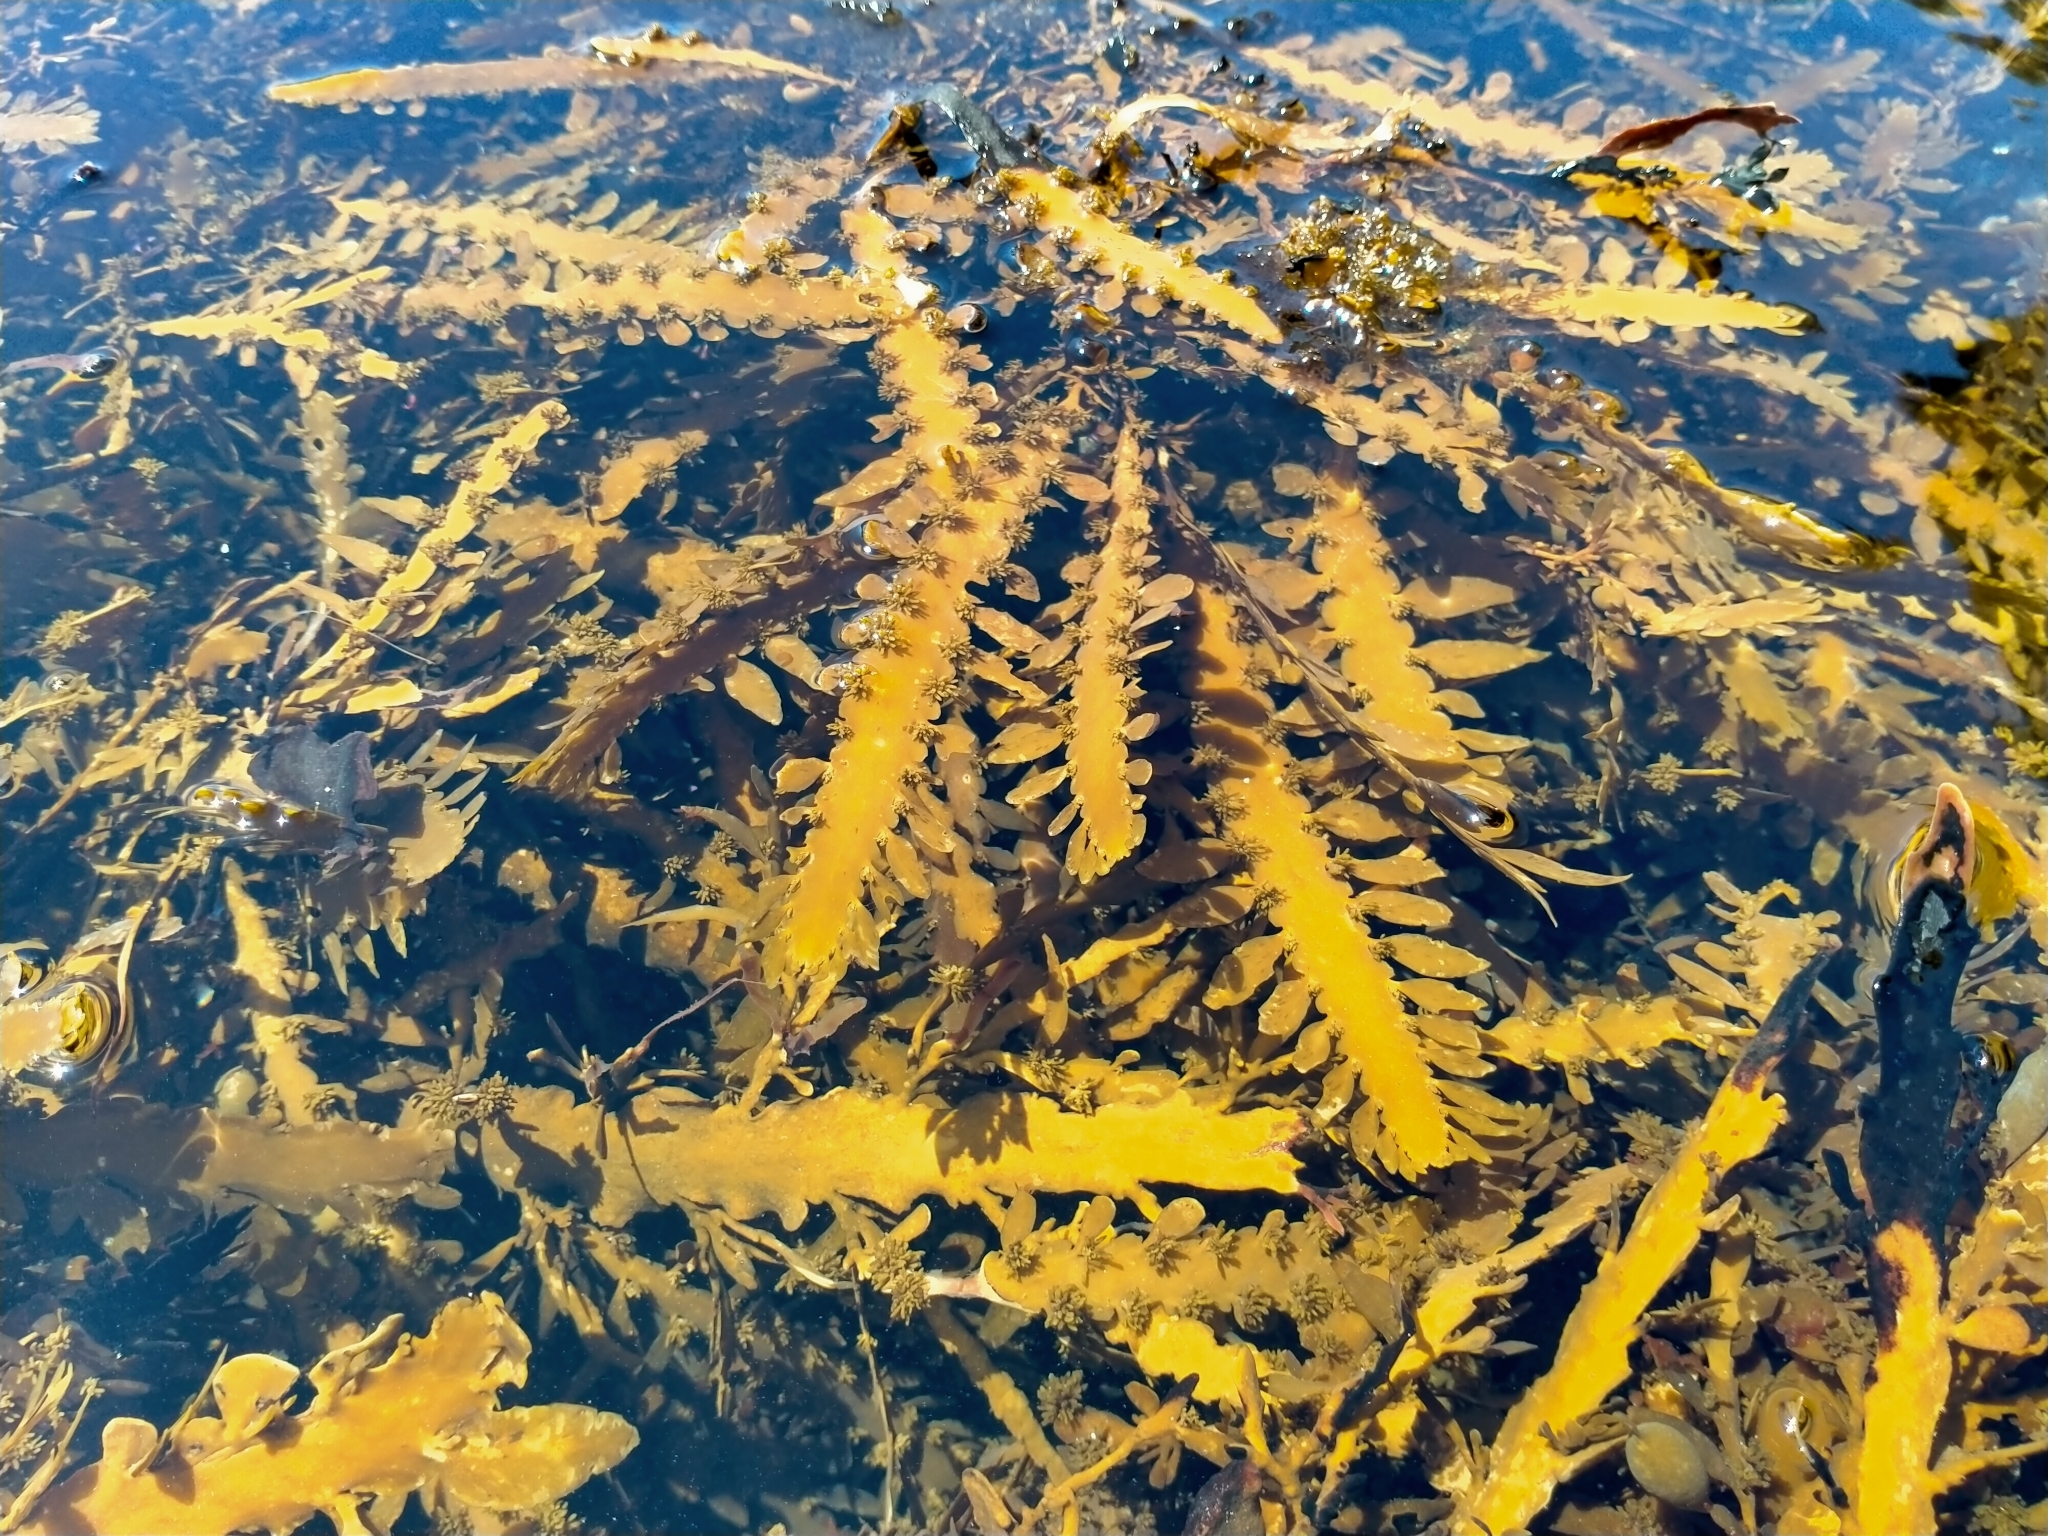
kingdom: Chromista
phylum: Ochrophyta
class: Phaeophyceae
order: Fucales
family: Sargassaceae
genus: Carpophyllum
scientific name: Carpophyllum maschalocarpum
